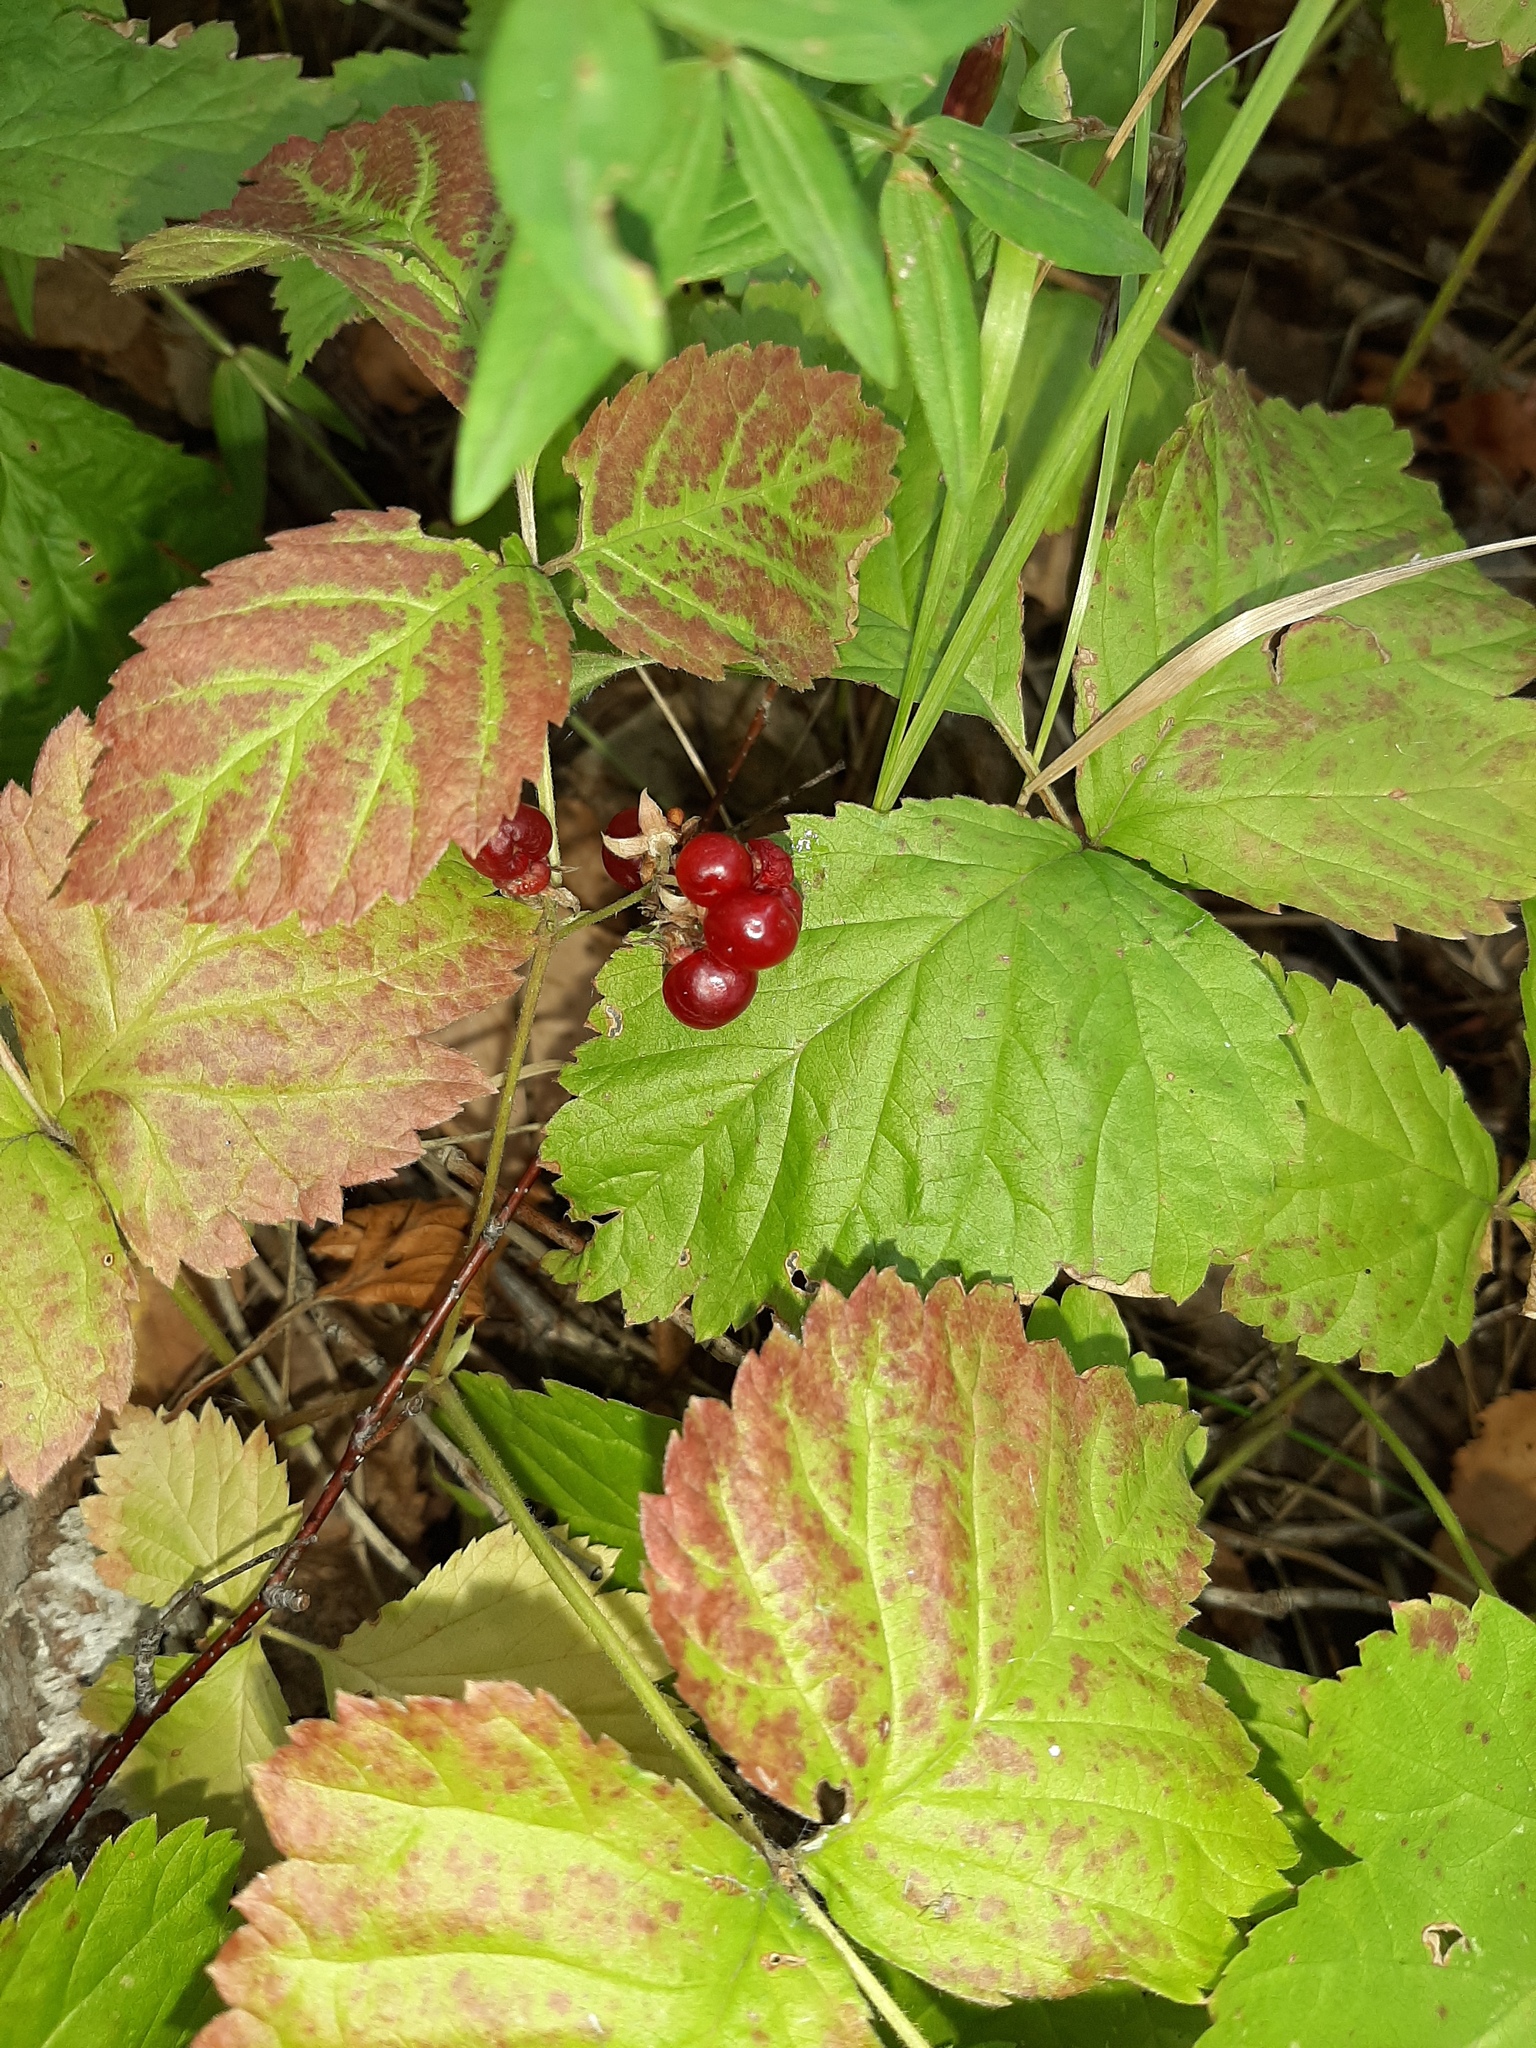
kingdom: Plantae
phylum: Tracheophyta
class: Magnoliopsida
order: Rosales
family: Rosaceae
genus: Rubus
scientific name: Rubus saxatilis
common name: Stone bramble
